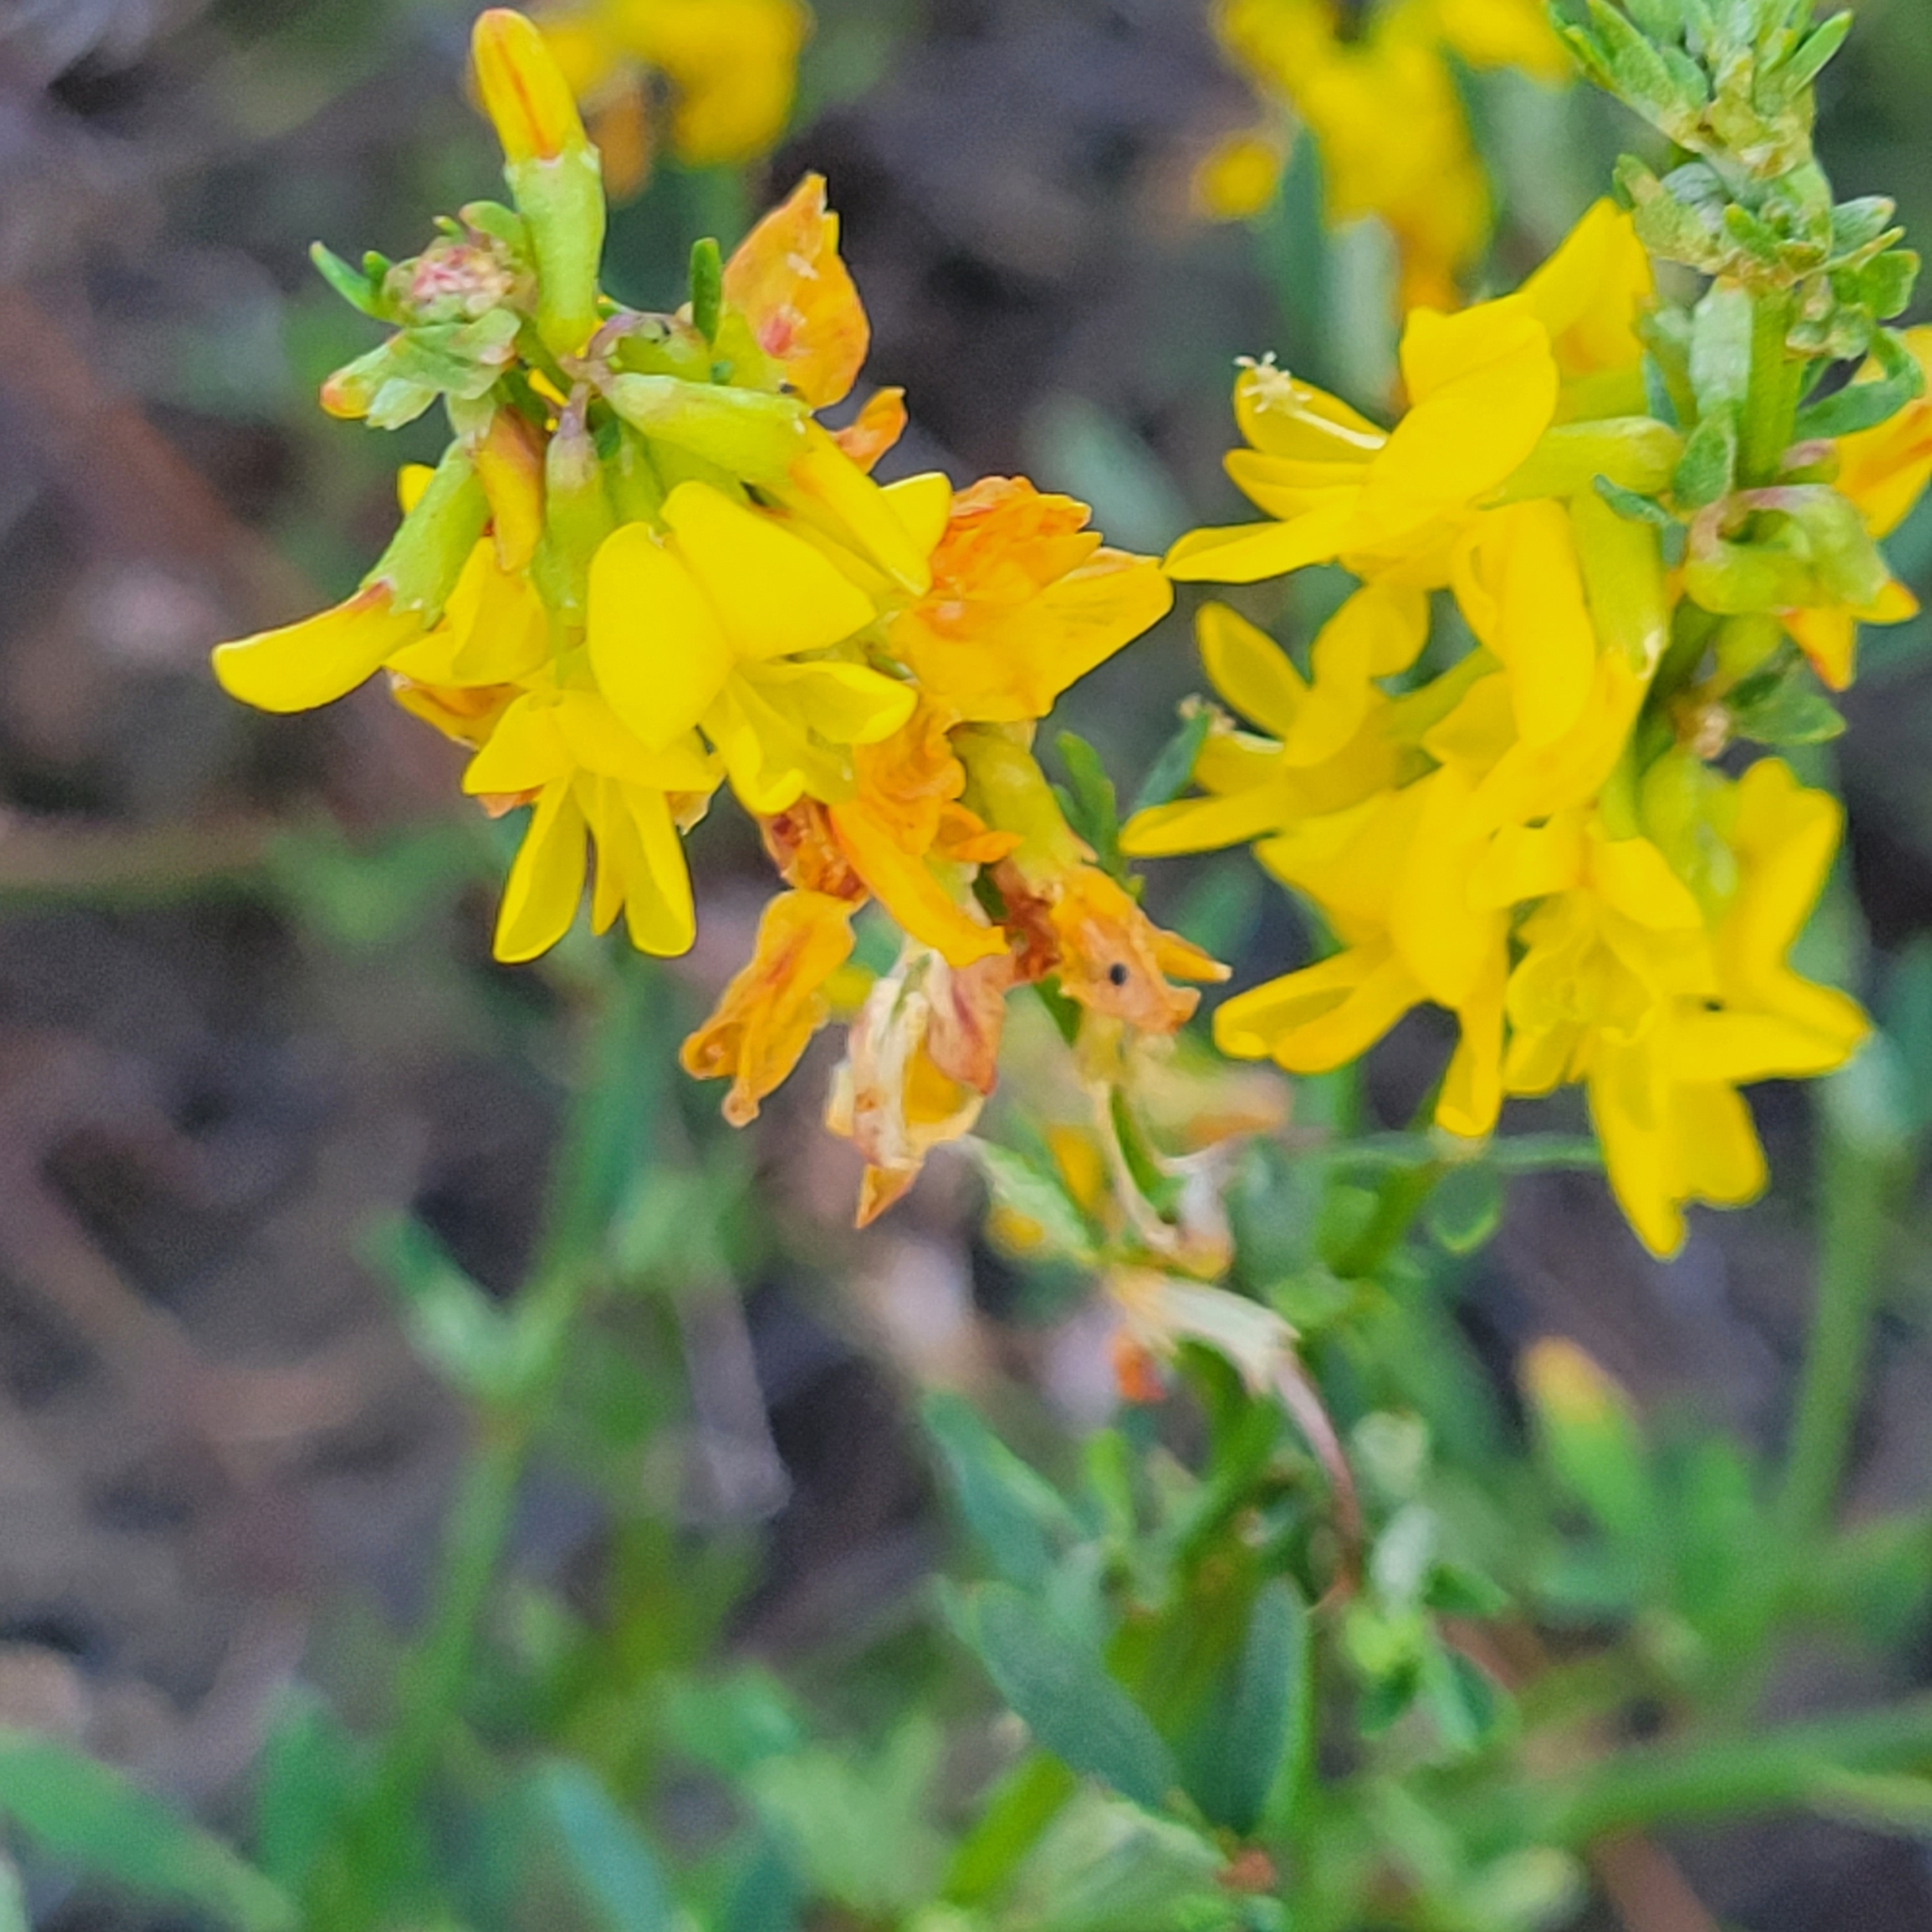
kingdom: Plantae
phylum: Tracheophyta
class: Magnoliopsida
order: Fabales
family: Fabaceae
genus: Acmispon
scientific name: Acmispon glaber
